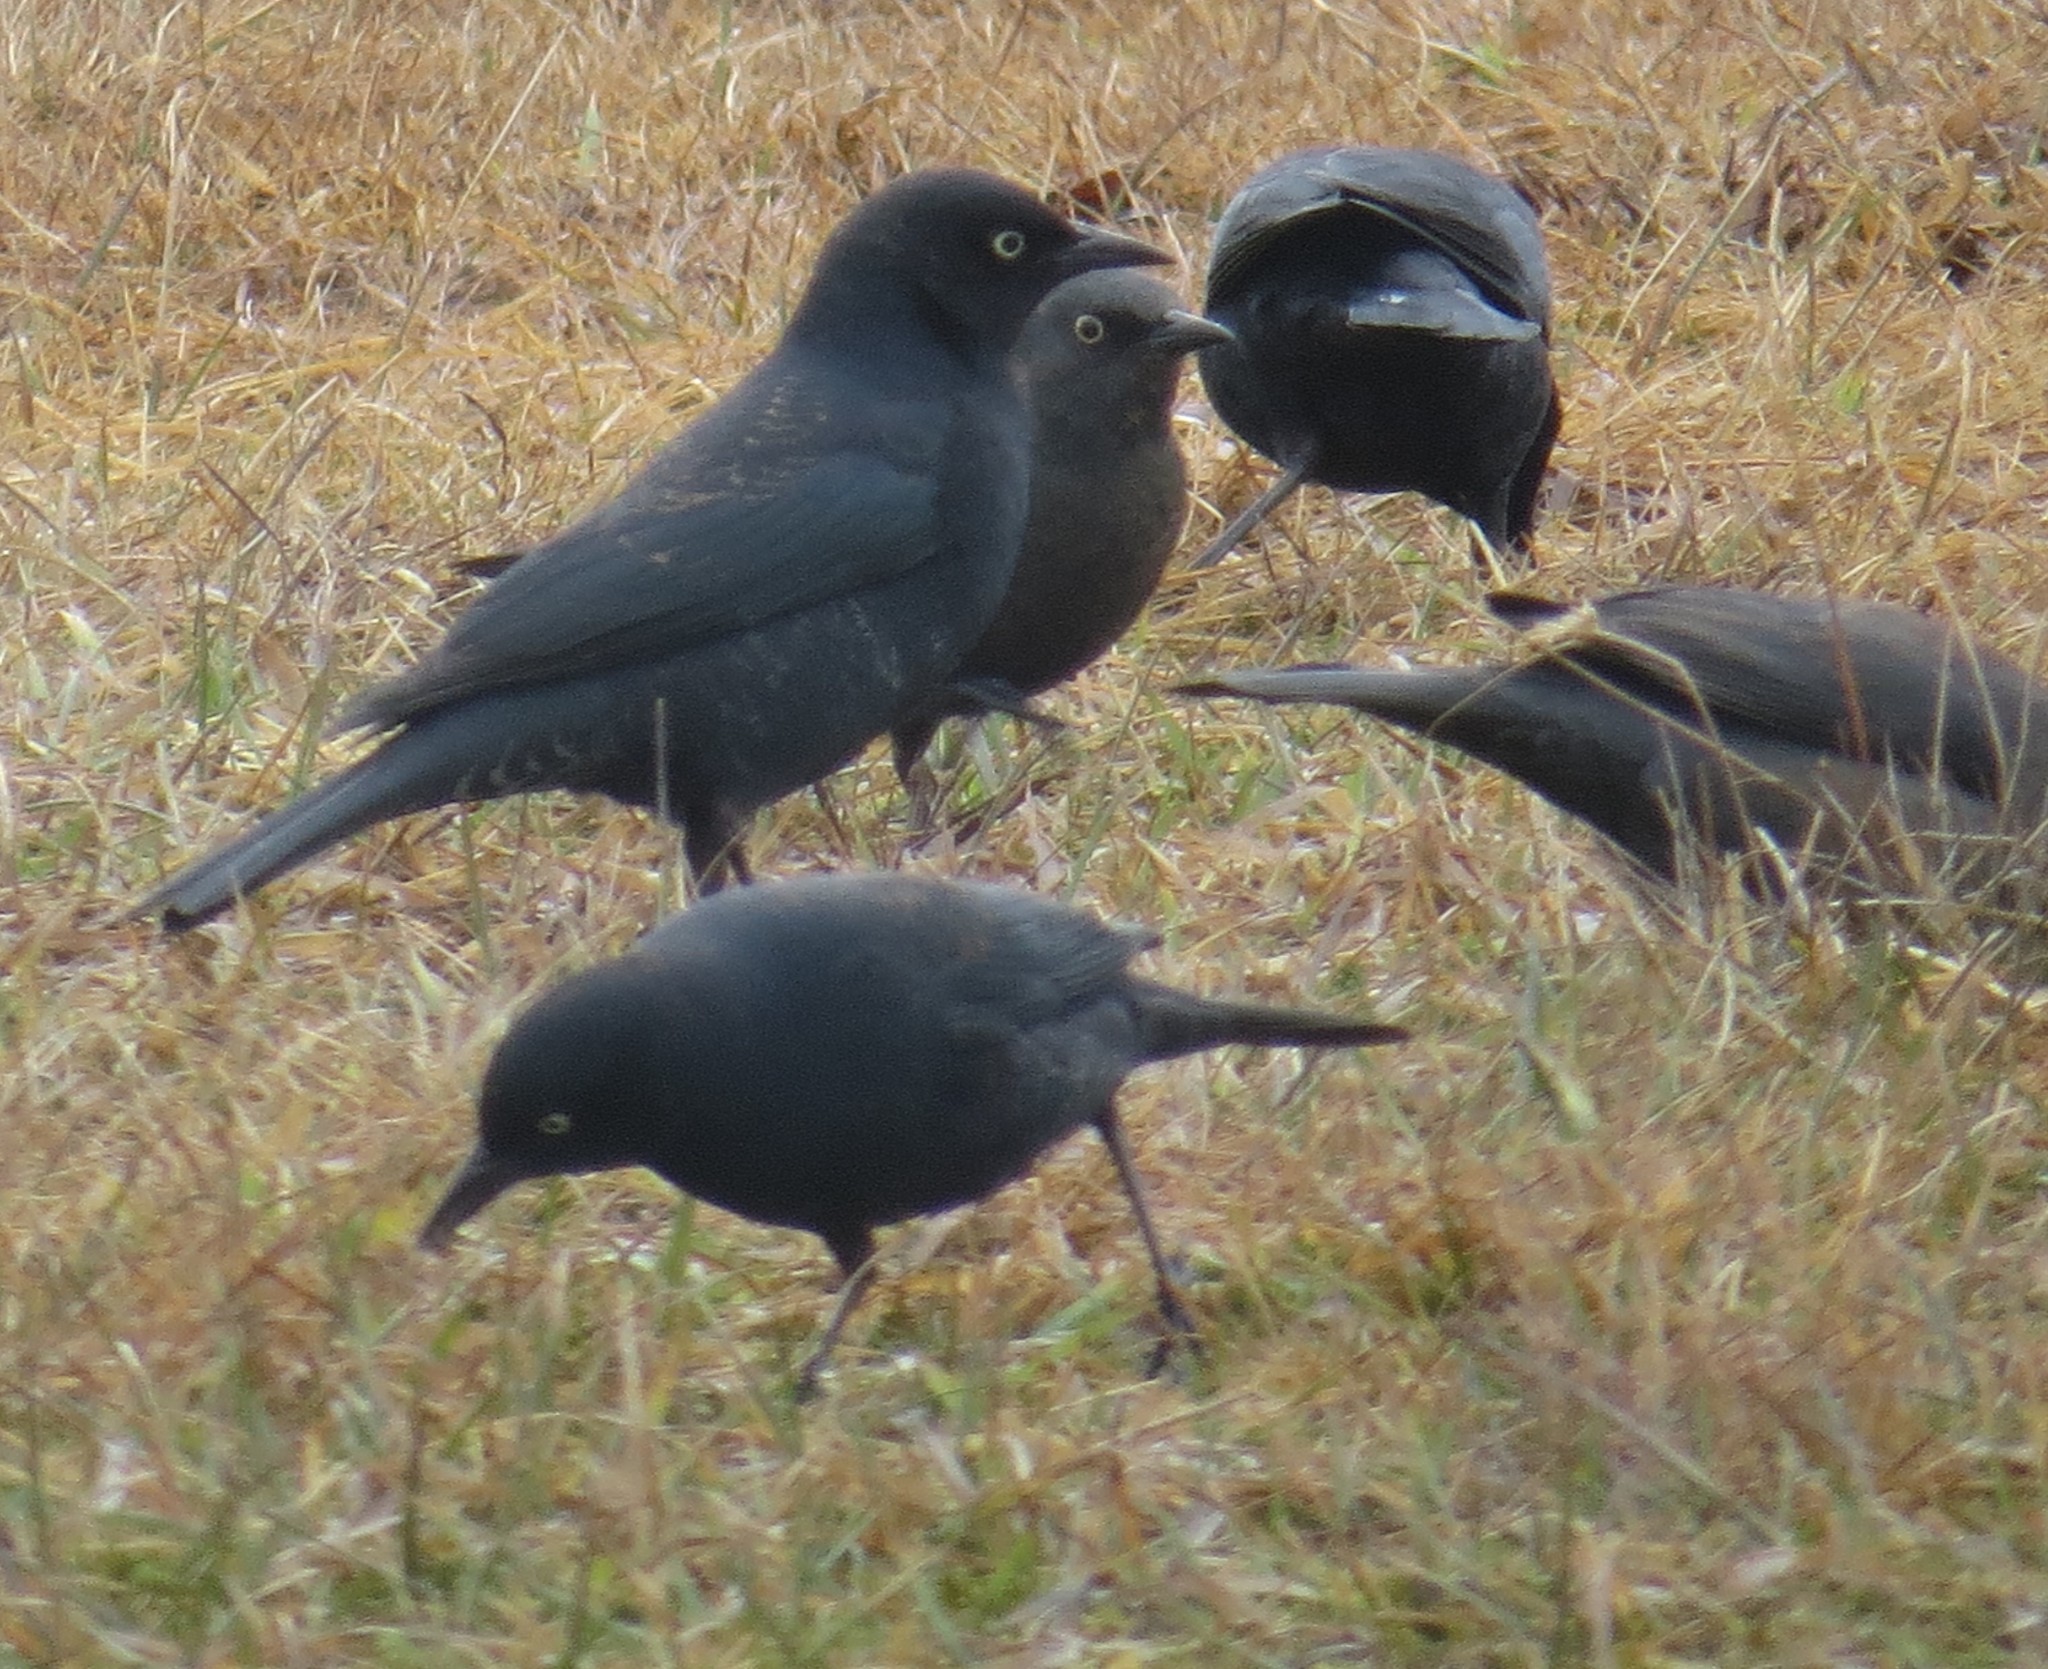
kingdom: Animalia
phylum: Chordata
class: Aves
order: Passeriformes
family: Icteridae
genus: Euphagus
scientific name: Euphagus carolinus
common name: Rusty blackbird
